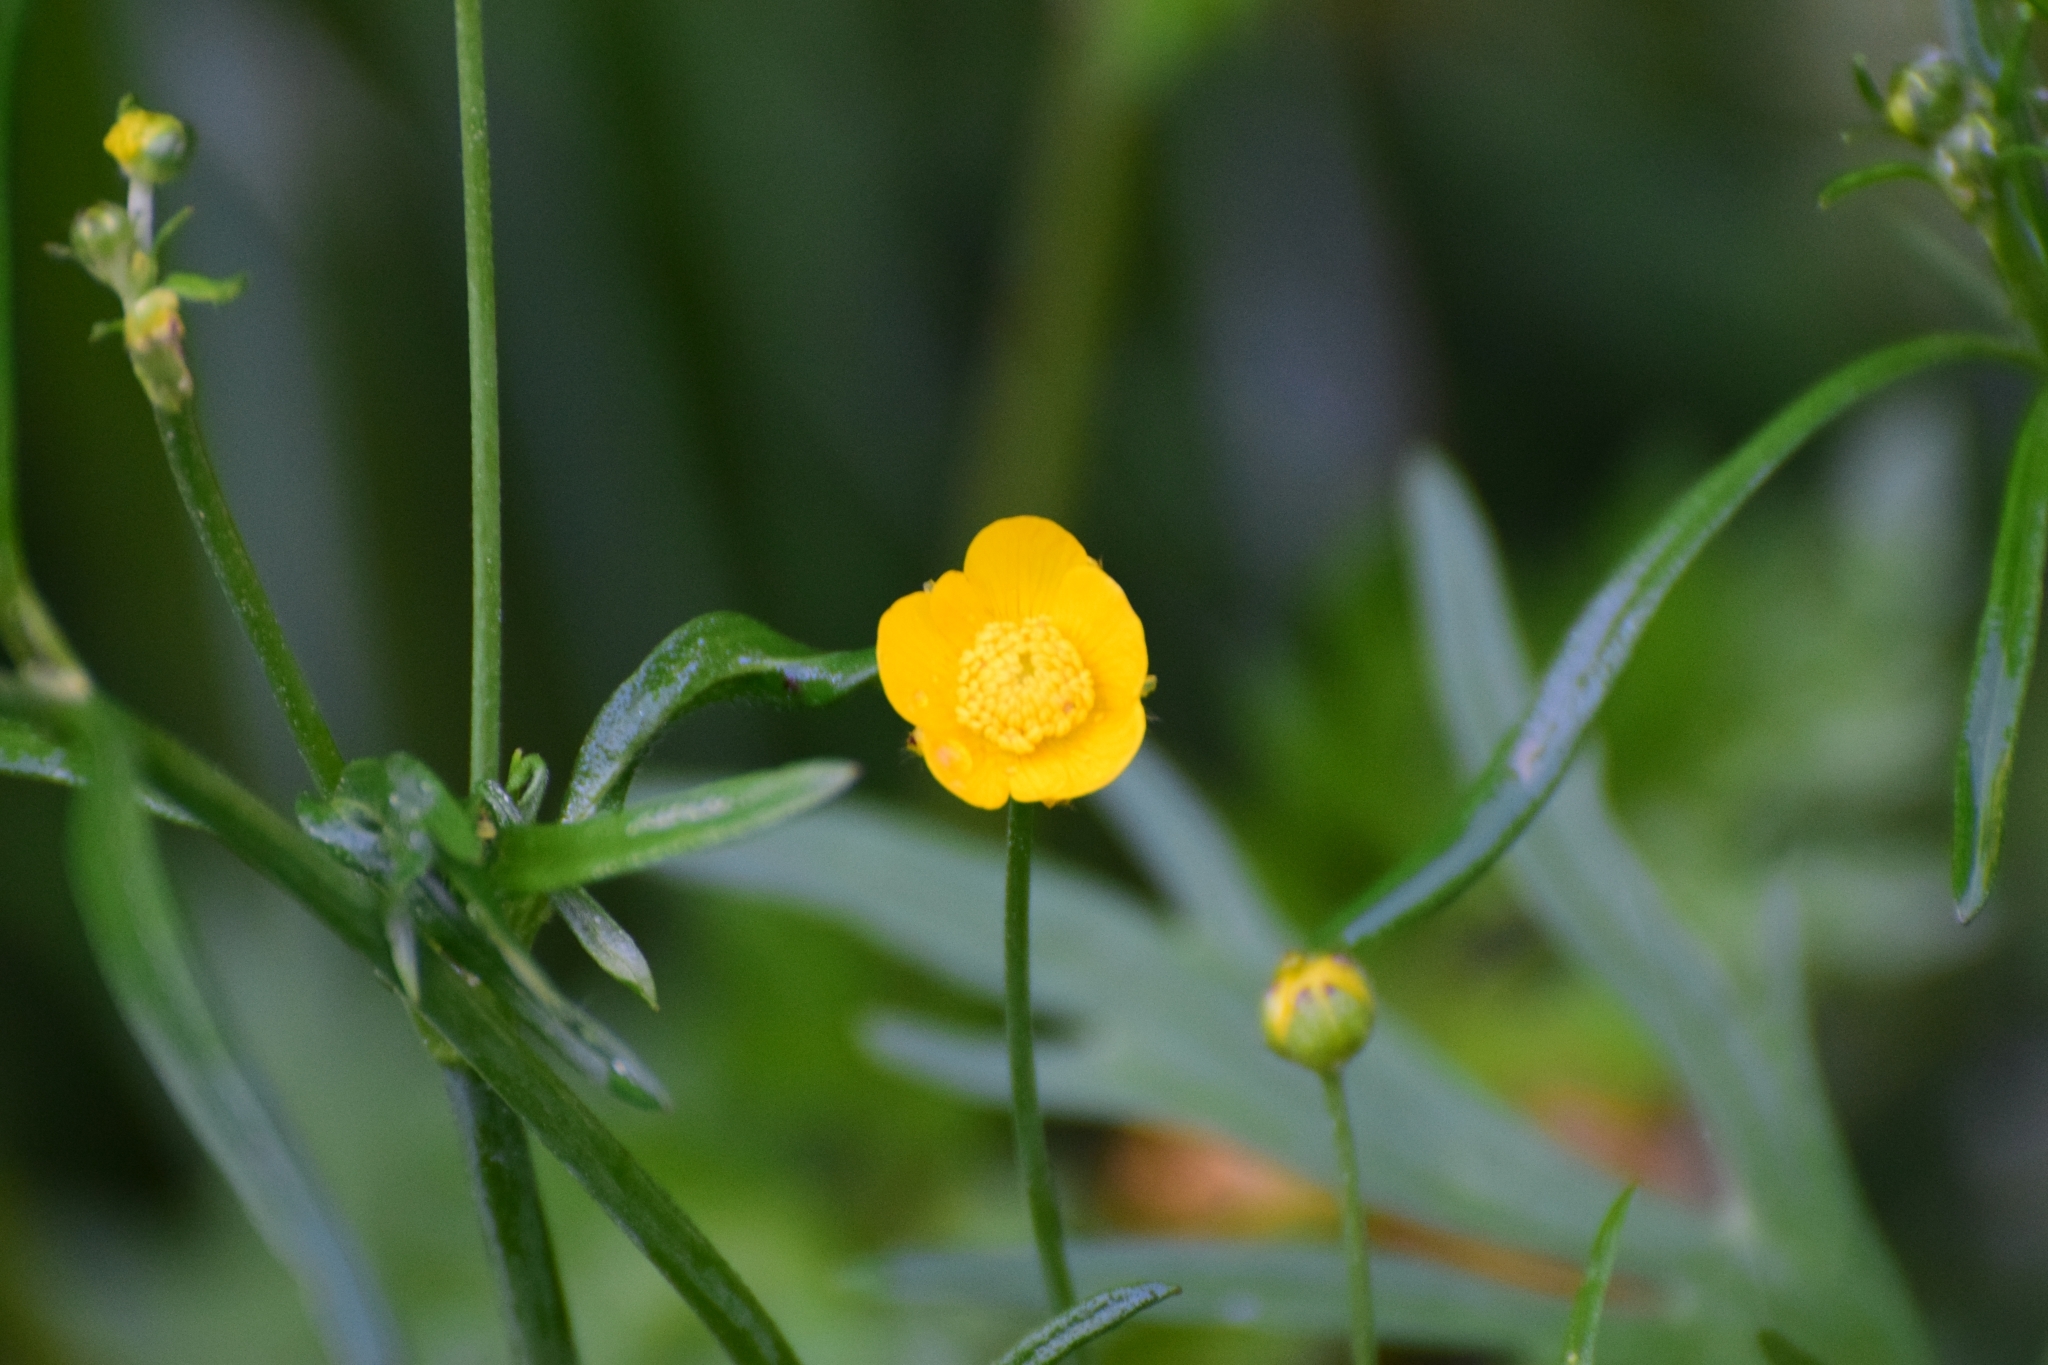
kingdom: Plantae
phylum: Tracheophyta
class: Magnoliopsida
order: Ranunculales
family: Ranunculaceae
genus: Ranunculus
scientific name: Ranunculus acris
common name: Meadow buttercup
